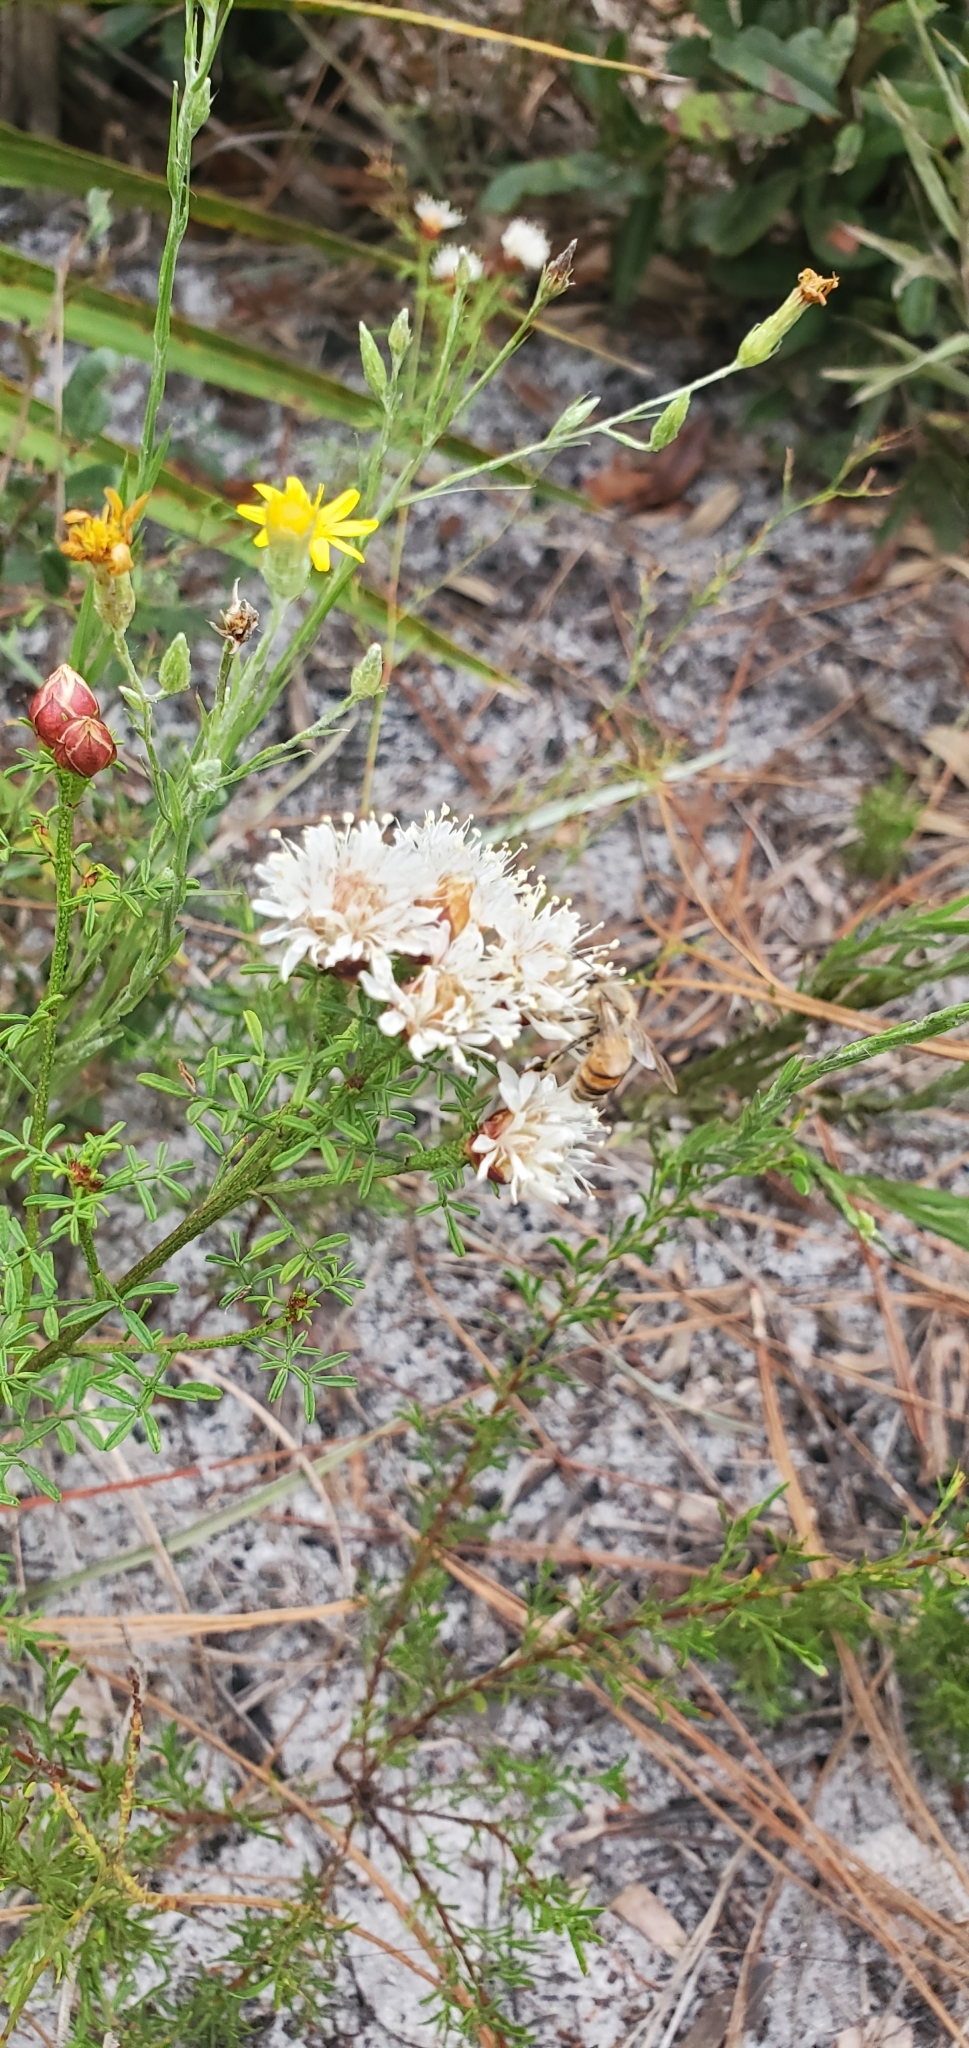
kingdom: Animalia
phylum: Arthropoda
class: Insecta
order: Hymenoptera
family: Apidae
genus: Apis
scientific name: Apis mellifera
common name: Honey bee
